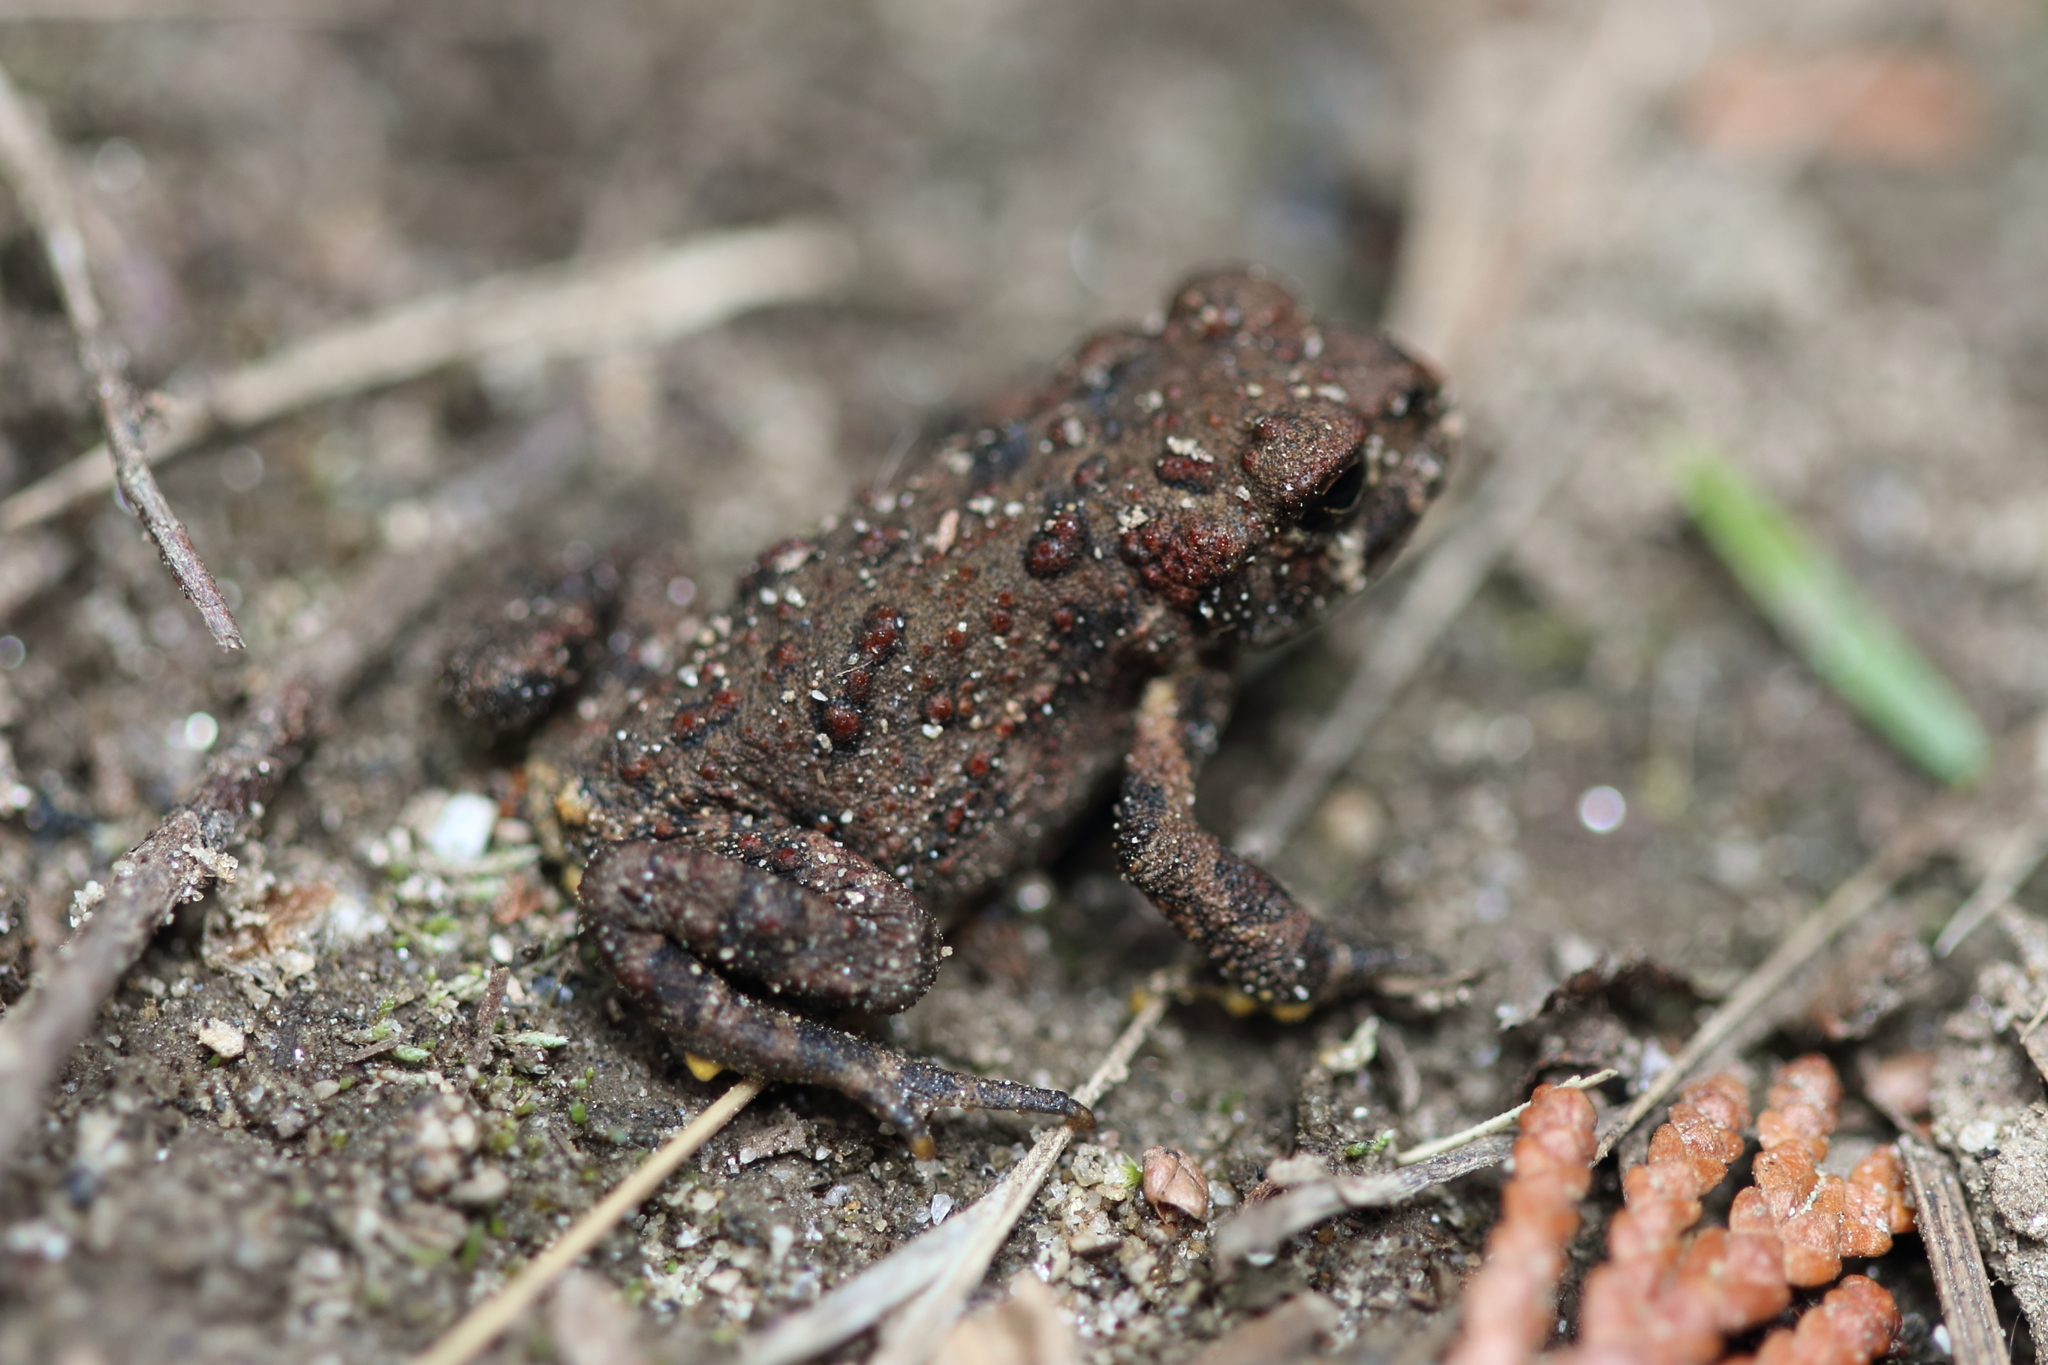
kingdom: Animalia
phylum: Chordata
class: Amphibia
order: Anura
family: Bufonidae
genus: Anaxyrus
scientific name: Anaxyrus boreas
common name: Western toad
